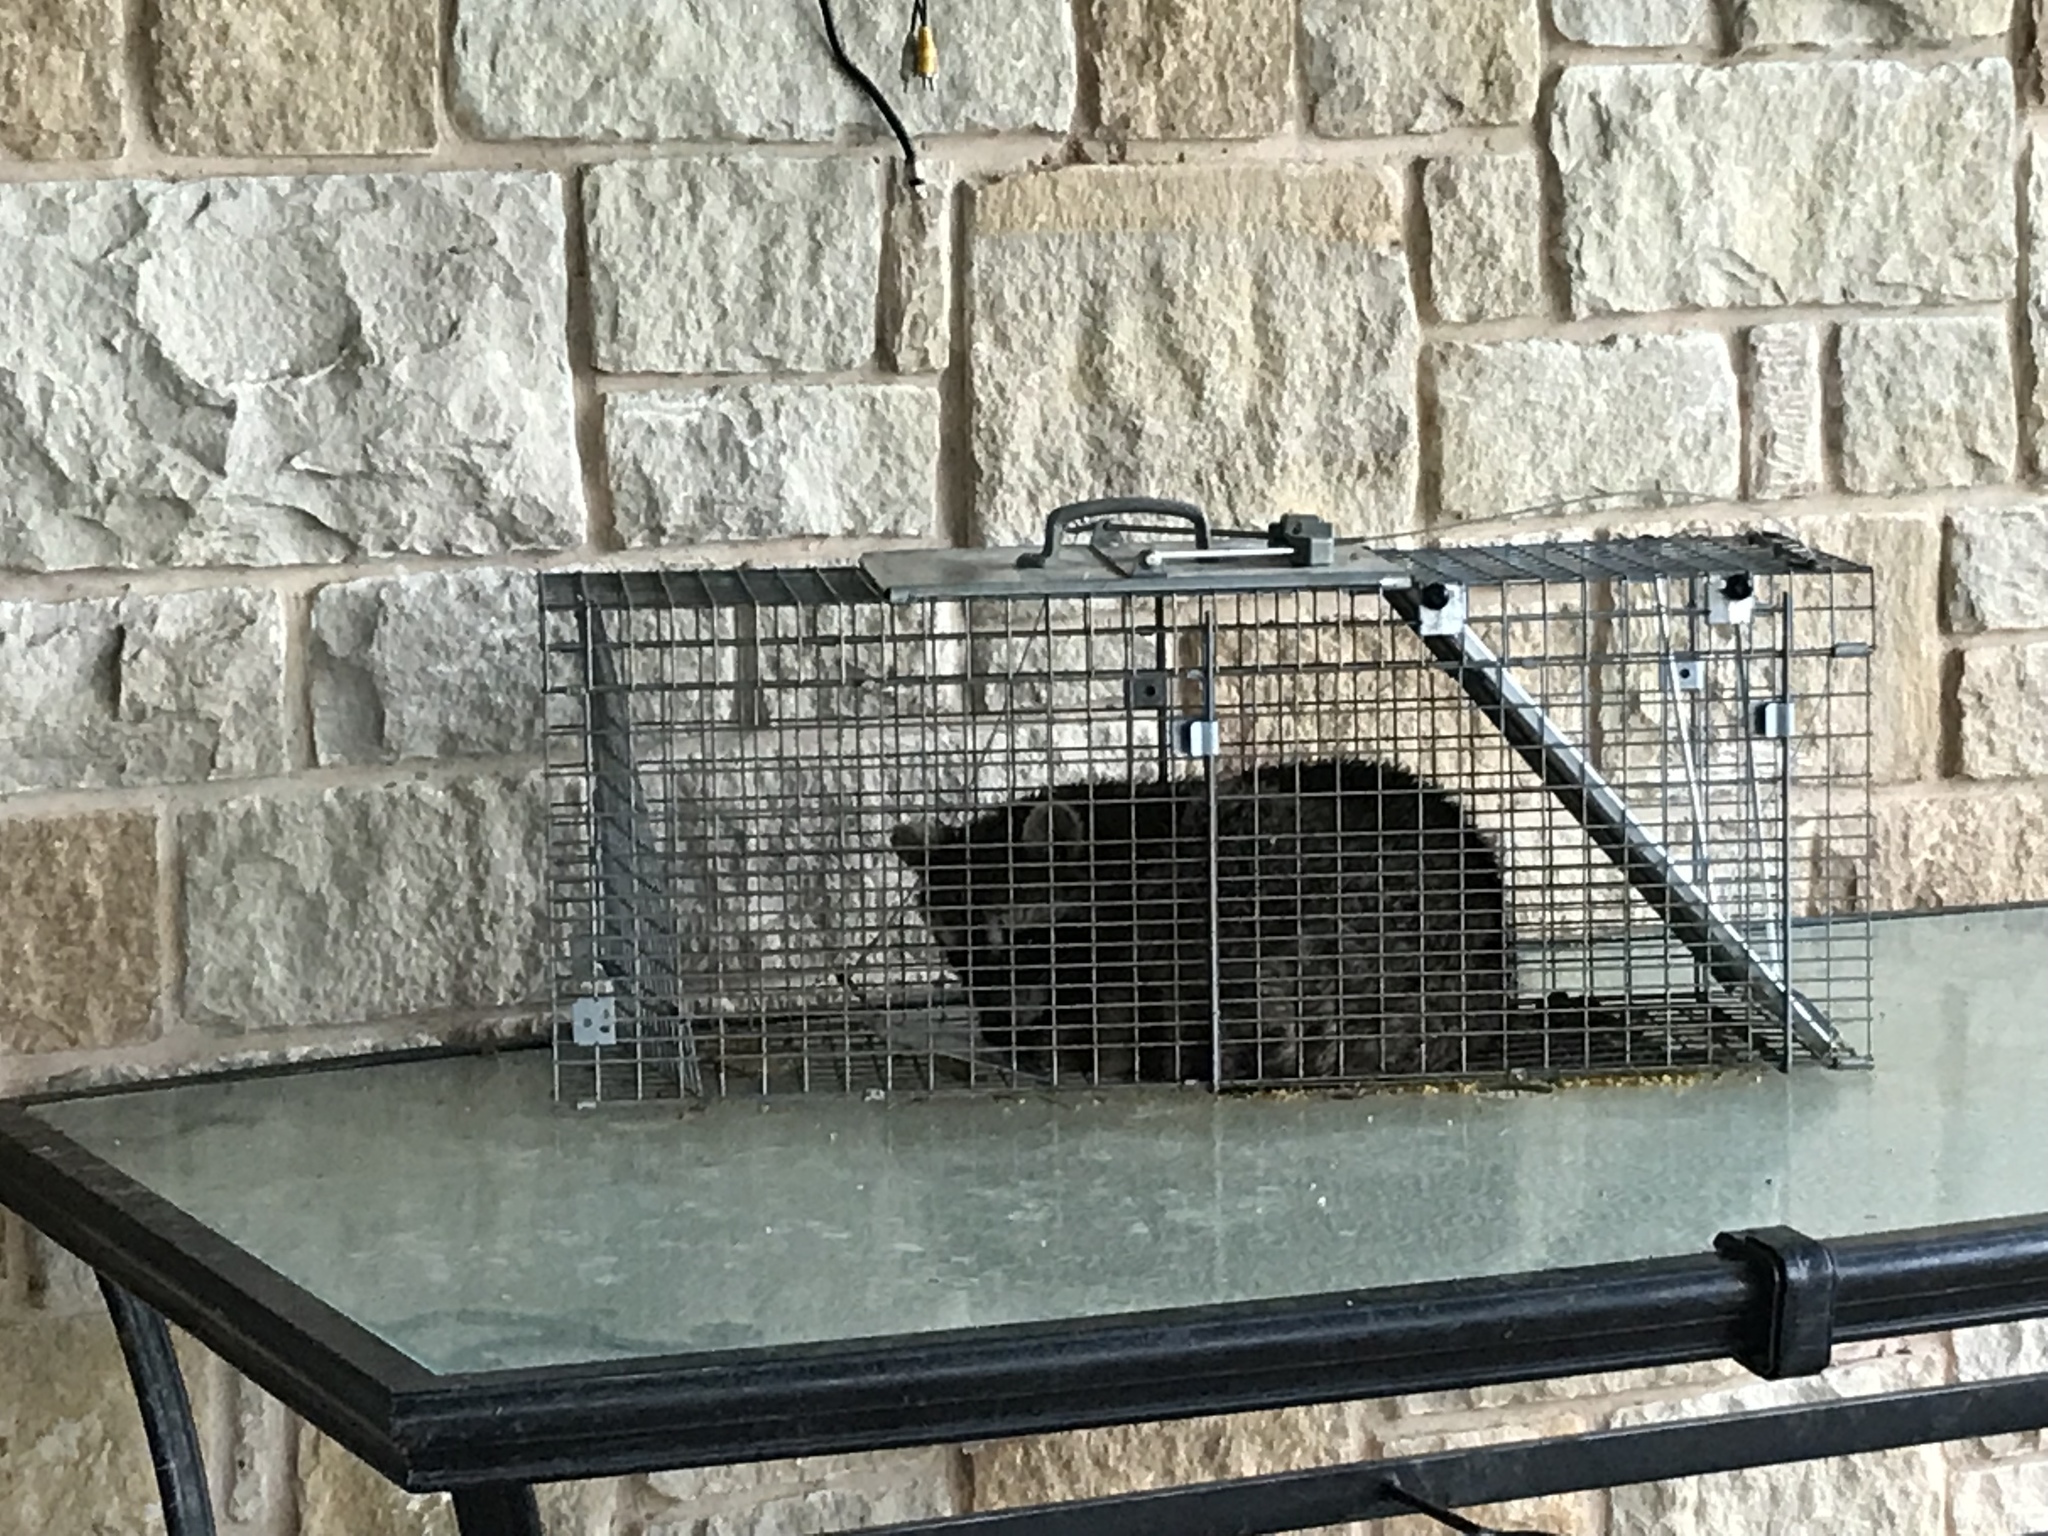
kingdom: Animalia
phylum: Chordata
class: Mammalia
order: Carnivora
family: Procyonidae
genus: Procyon
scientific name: Procyon lotor
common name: Raccoon
